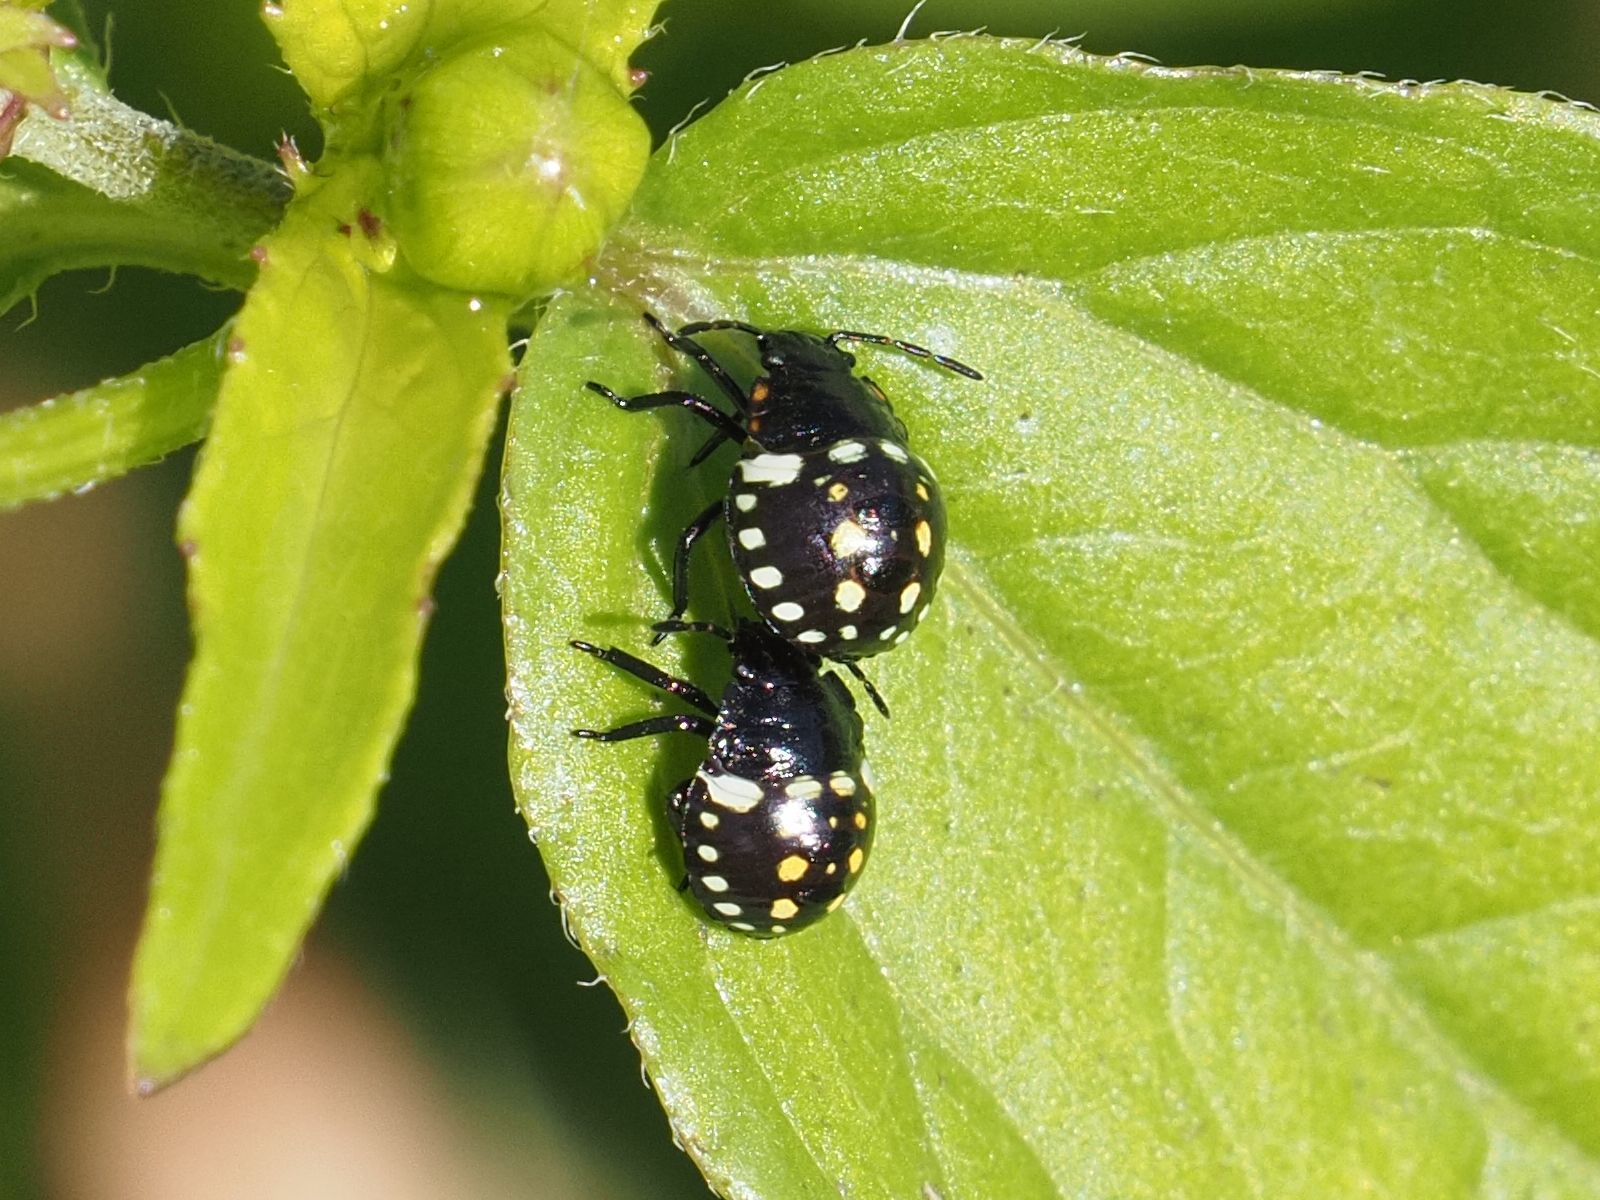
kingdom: Animalia
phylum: Arthropoda
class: Insecta
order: Hemiptera
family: Pentatomidae
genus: Nezara
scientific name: Nezara viridula
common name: Southern green stink bug
